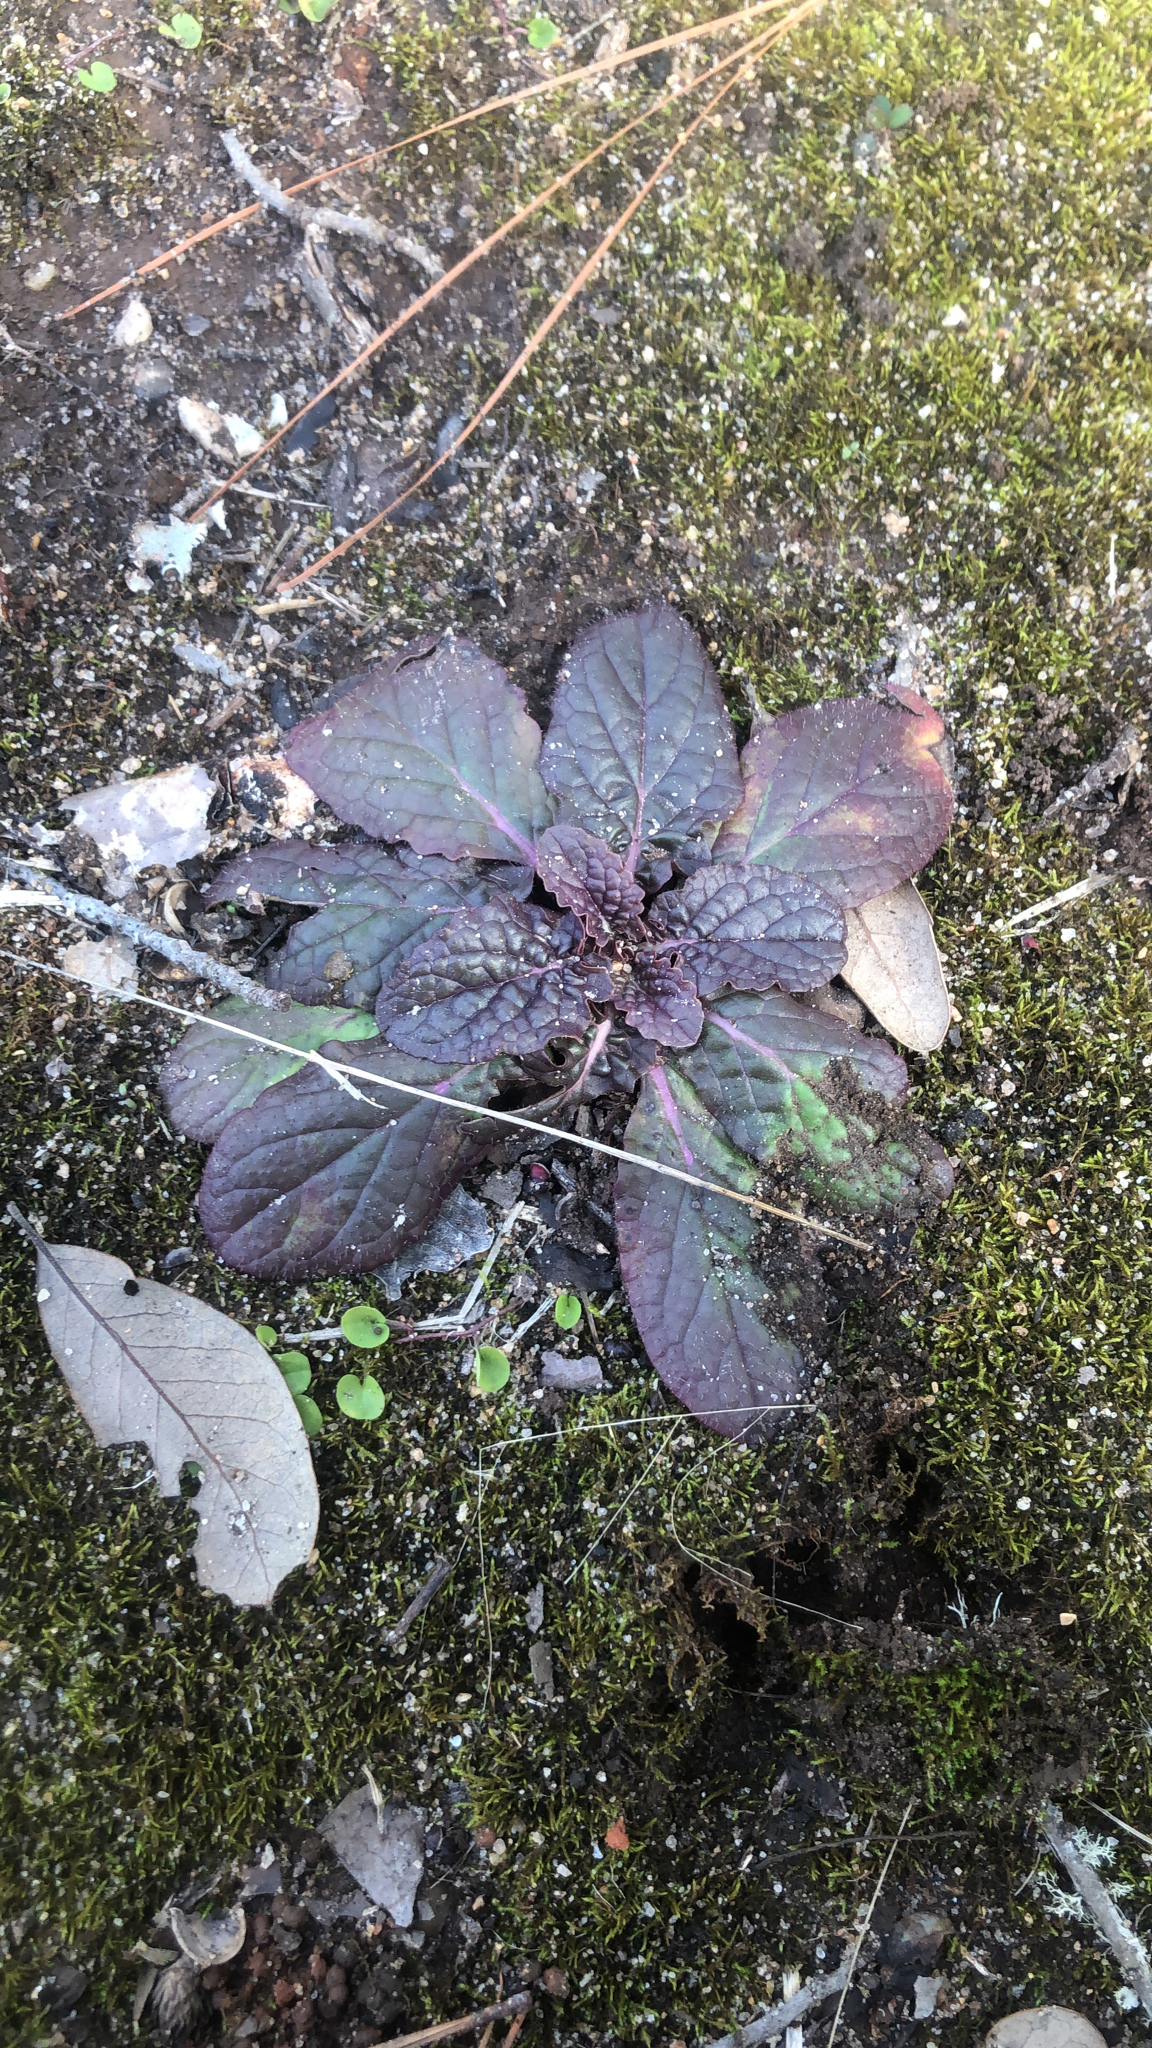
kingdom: Plantae
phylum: Tracheophyta
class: Magnoliopsida
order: Lamiales
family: Lamiaceae
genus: Salvia
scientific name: Salvia lyrata
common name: Cancerweed
